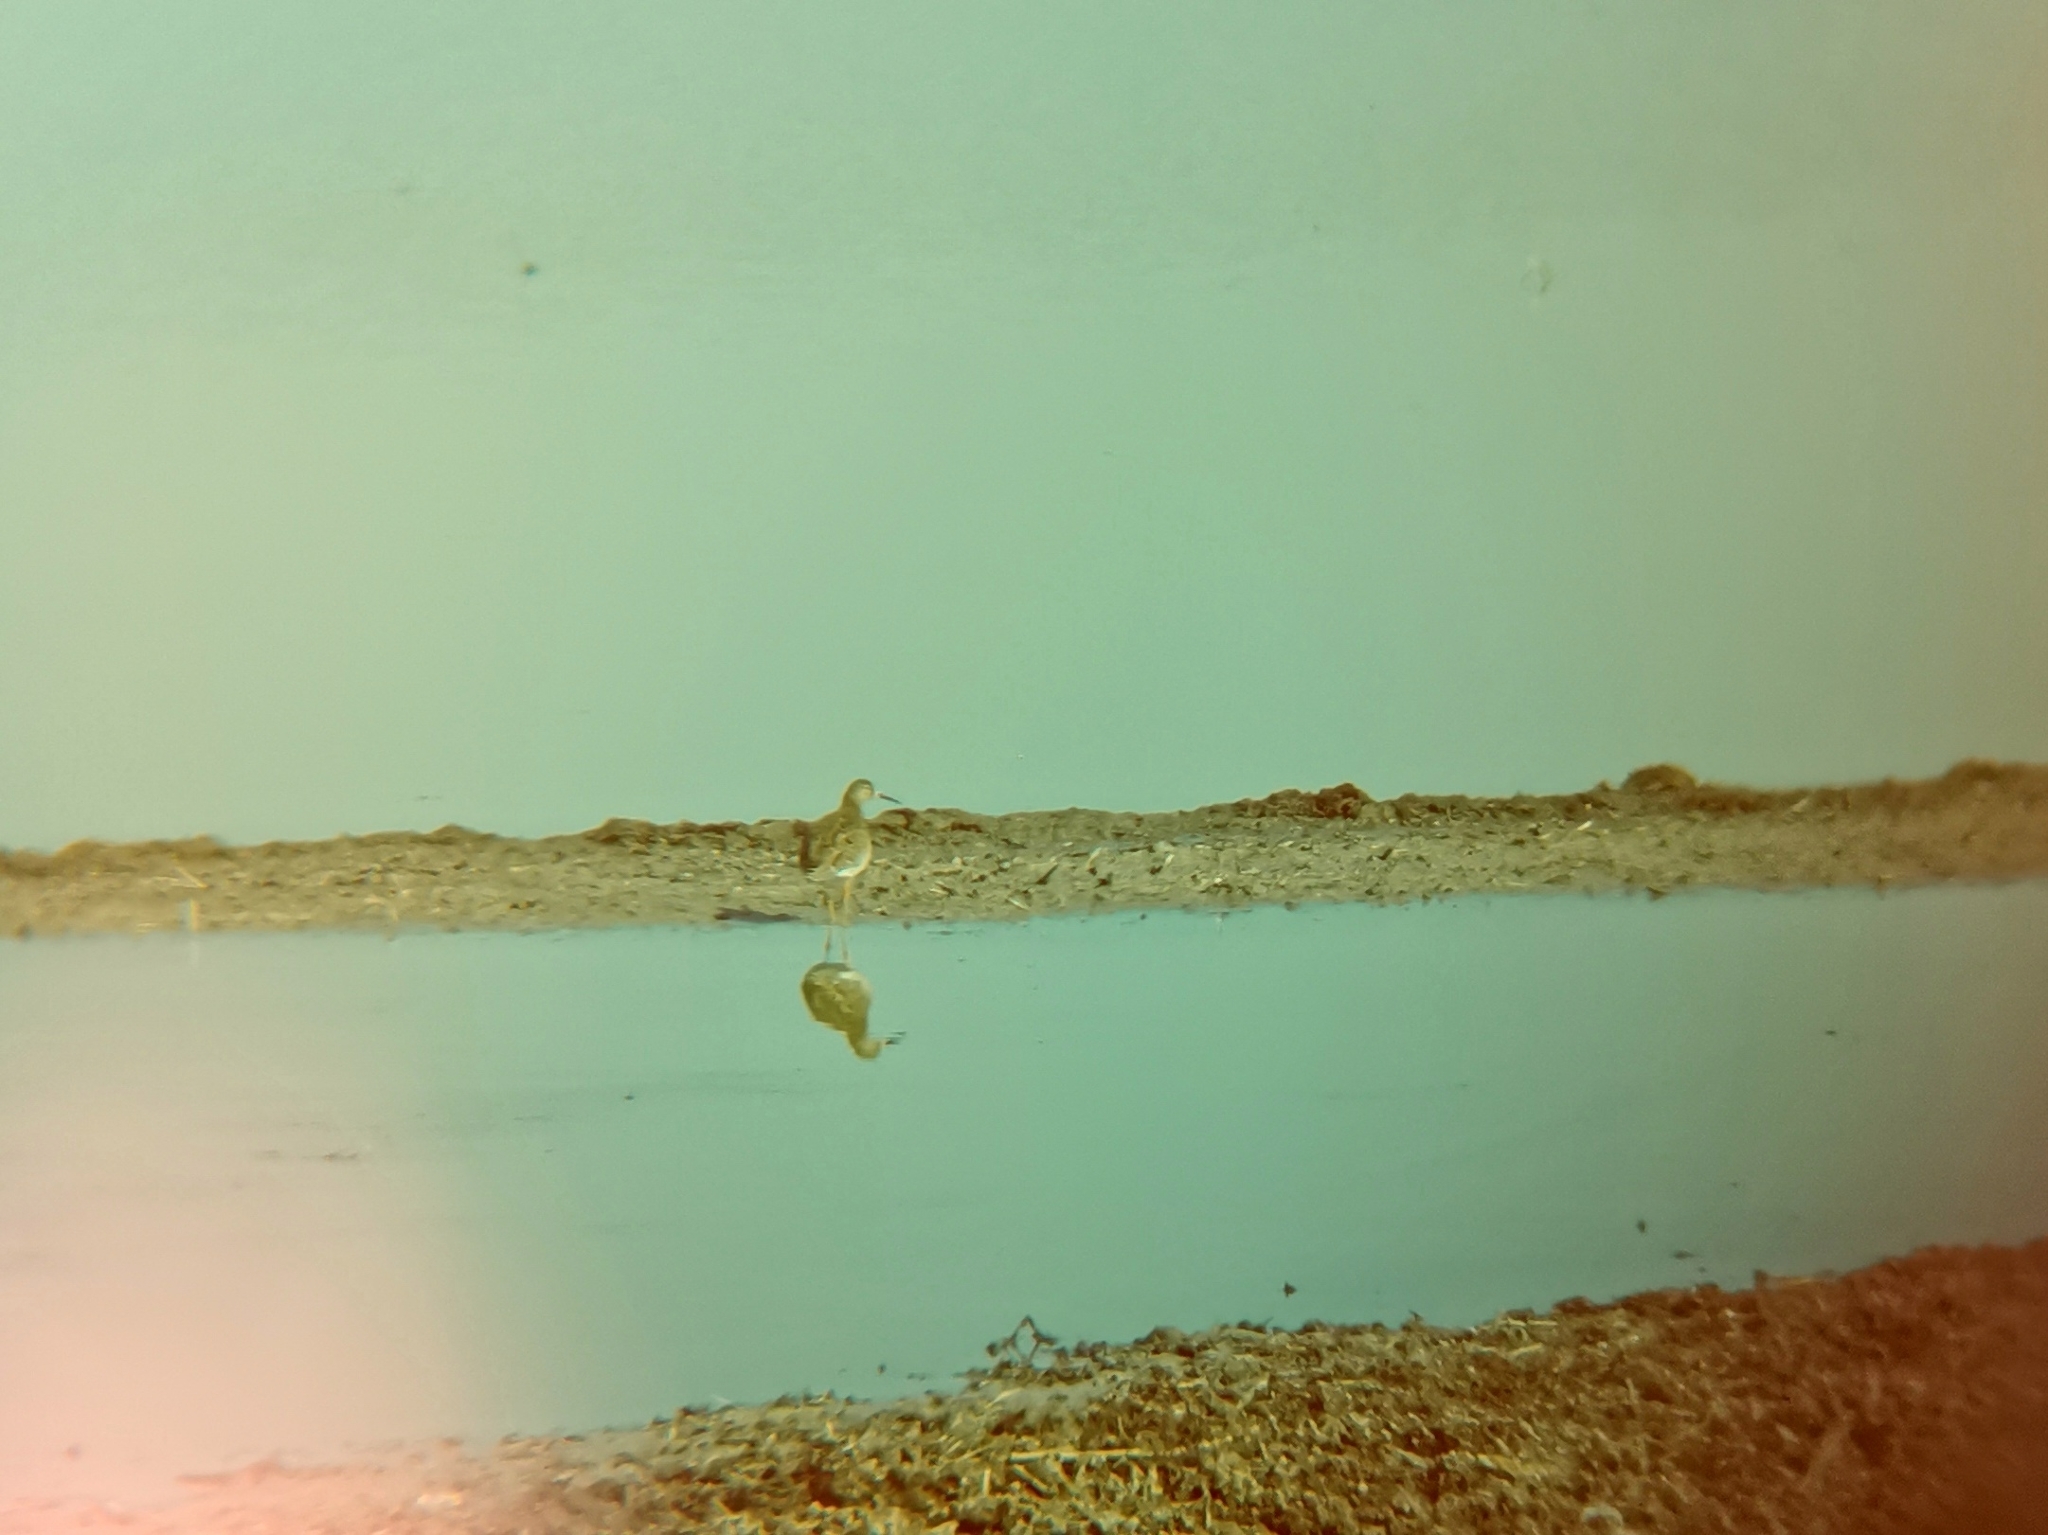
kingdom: Animalia
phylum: Chordata
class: Aves
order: Charadriiformes
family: Scolopacidae
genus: Calidris
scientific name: Calidris pugnax
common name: Ruff
